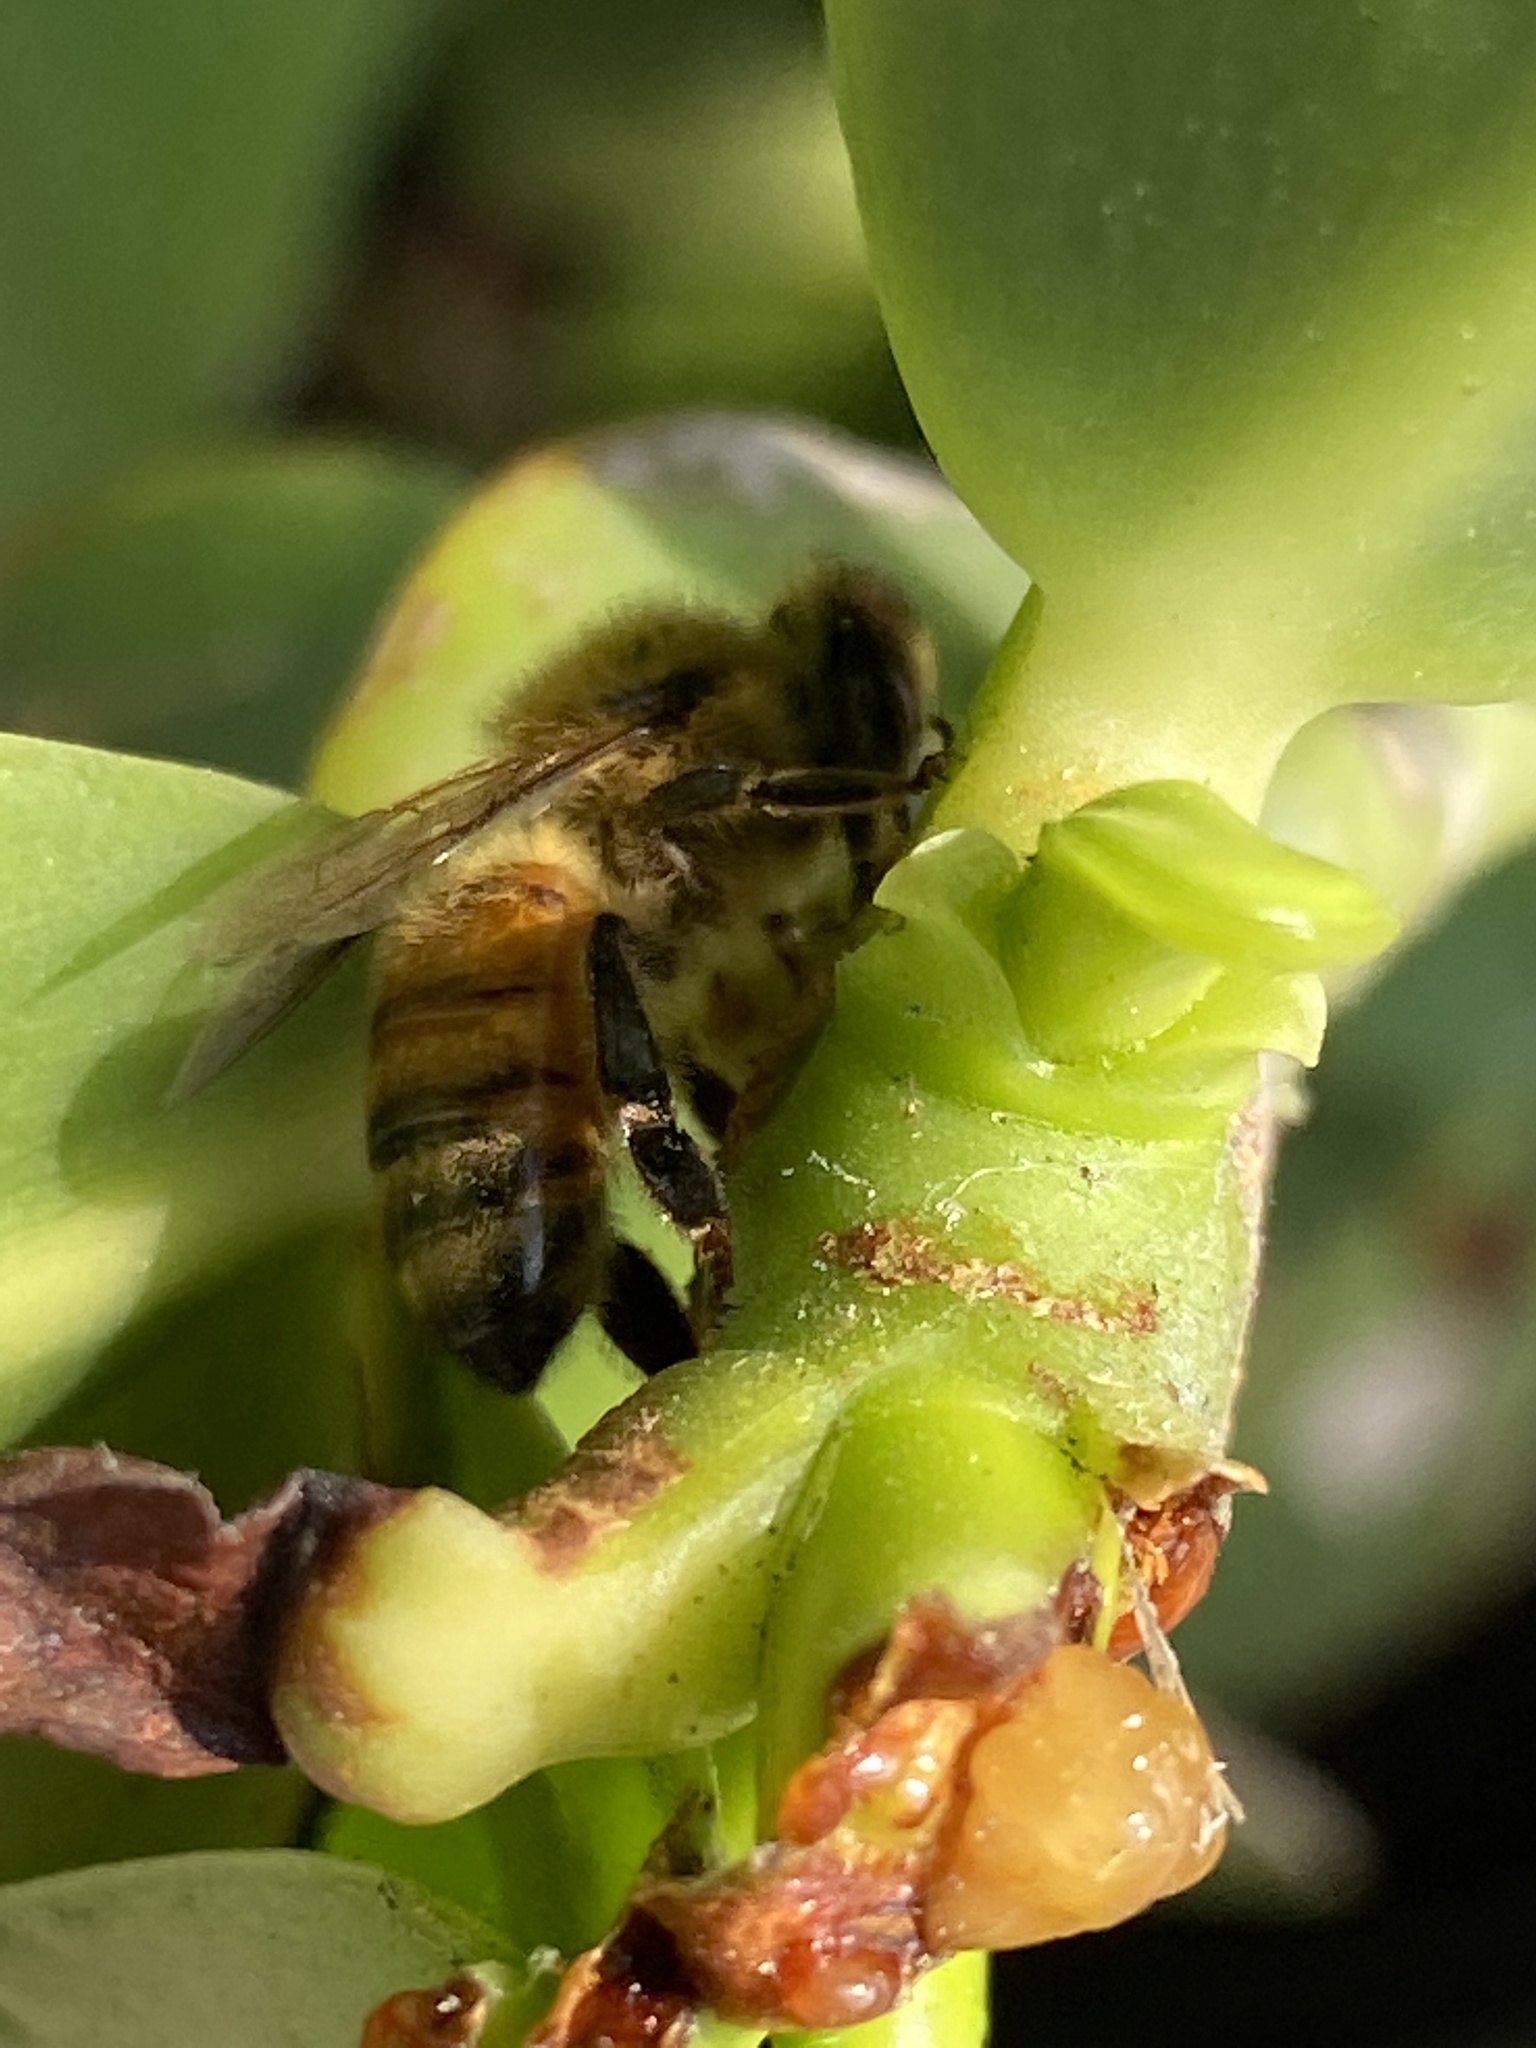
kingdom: Animalia
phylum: Arthropoda
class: Insecta
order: Hymenoptera
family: Apidae
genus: Apis
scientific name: Apis mellifera
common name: Honey bee
